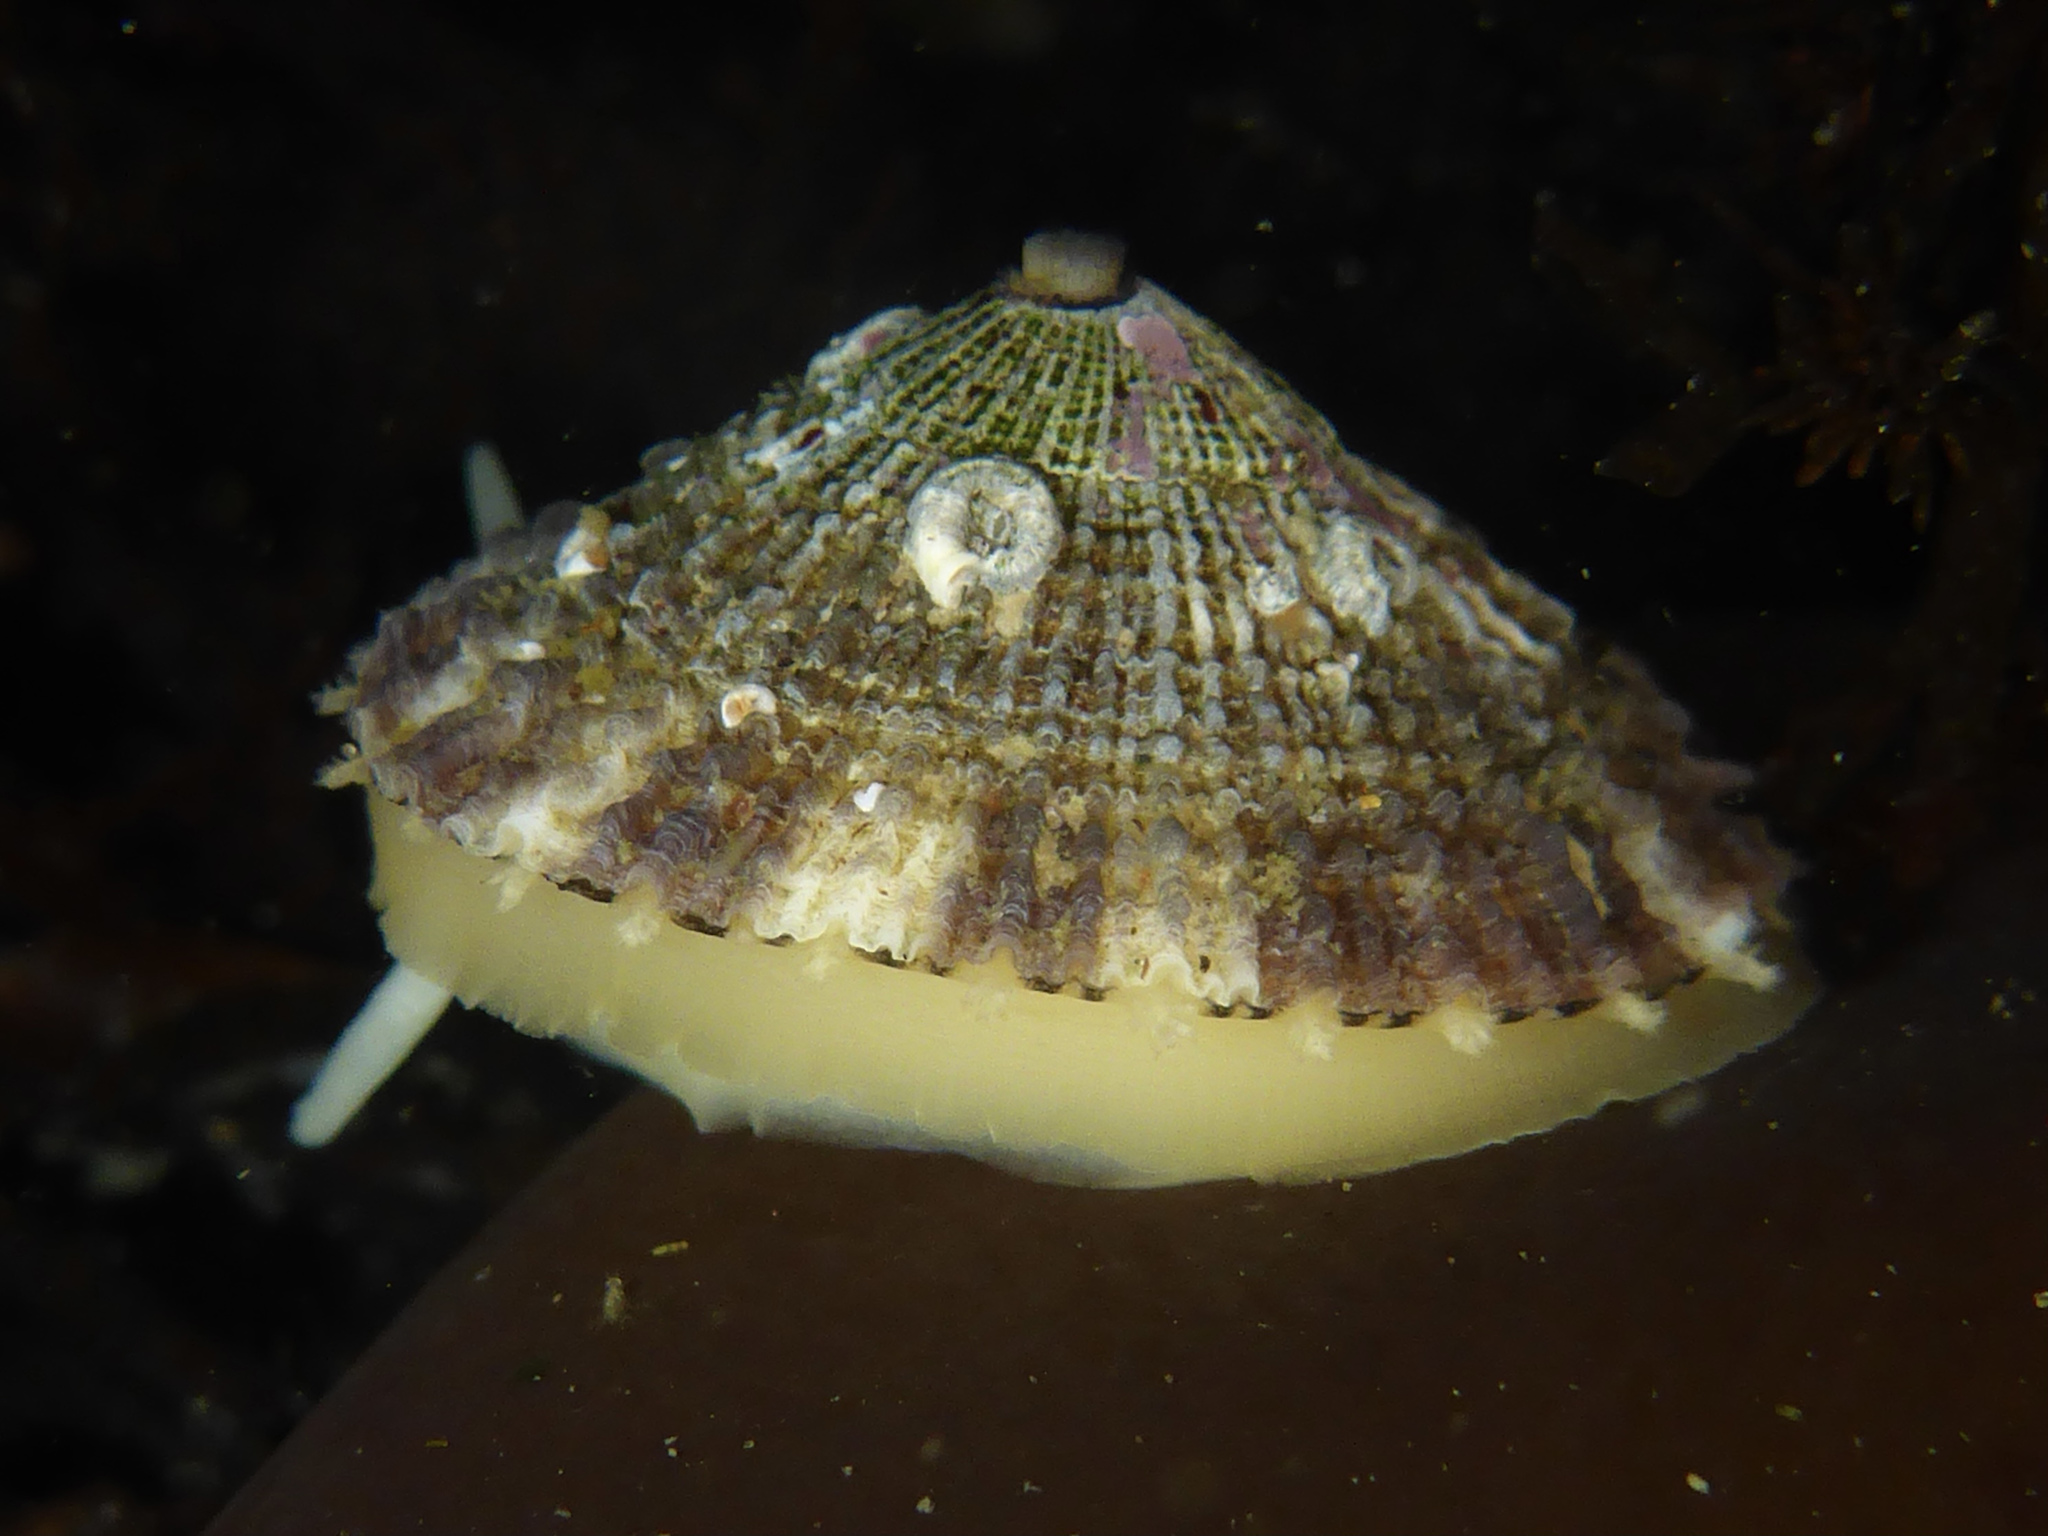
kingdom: Animalia
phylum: Mollusca
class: Gastropoda
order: Lepetellida
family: Fissurellidae
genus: Diodora
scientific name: Diodora aspera
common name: Rough keyhole limpet
